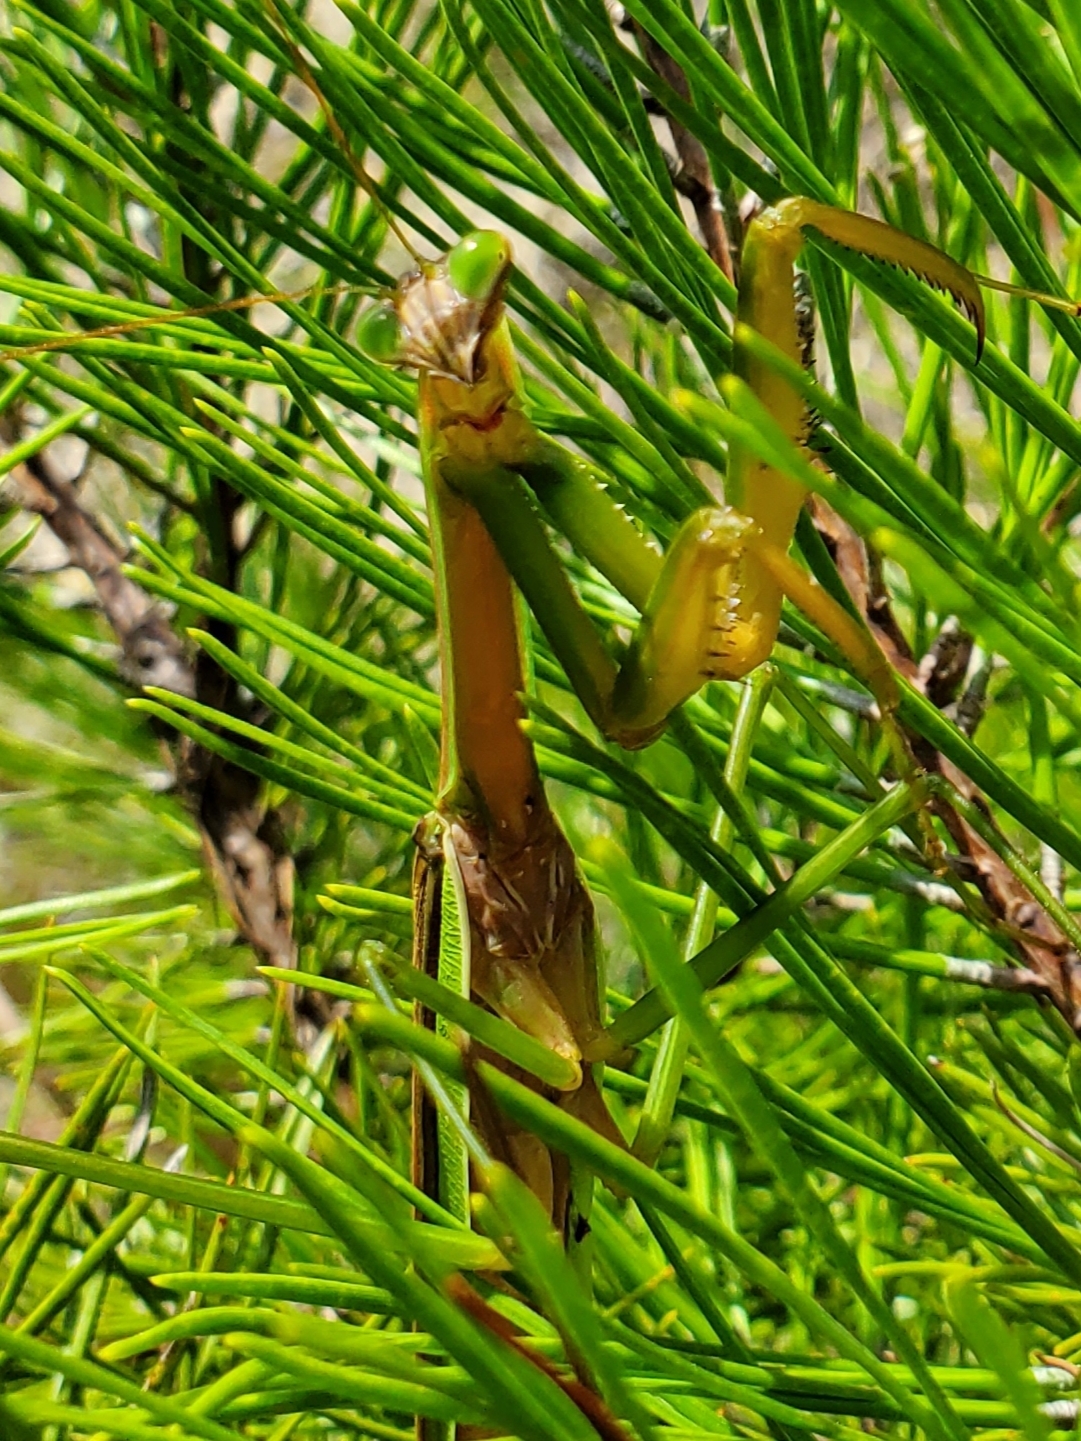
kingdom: Animalia
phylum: Arthropoda
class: Insecta
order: Mantodea
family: Mantidae
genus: Tenodera
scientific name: Tenodera sinensis
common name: Chinese mantis
